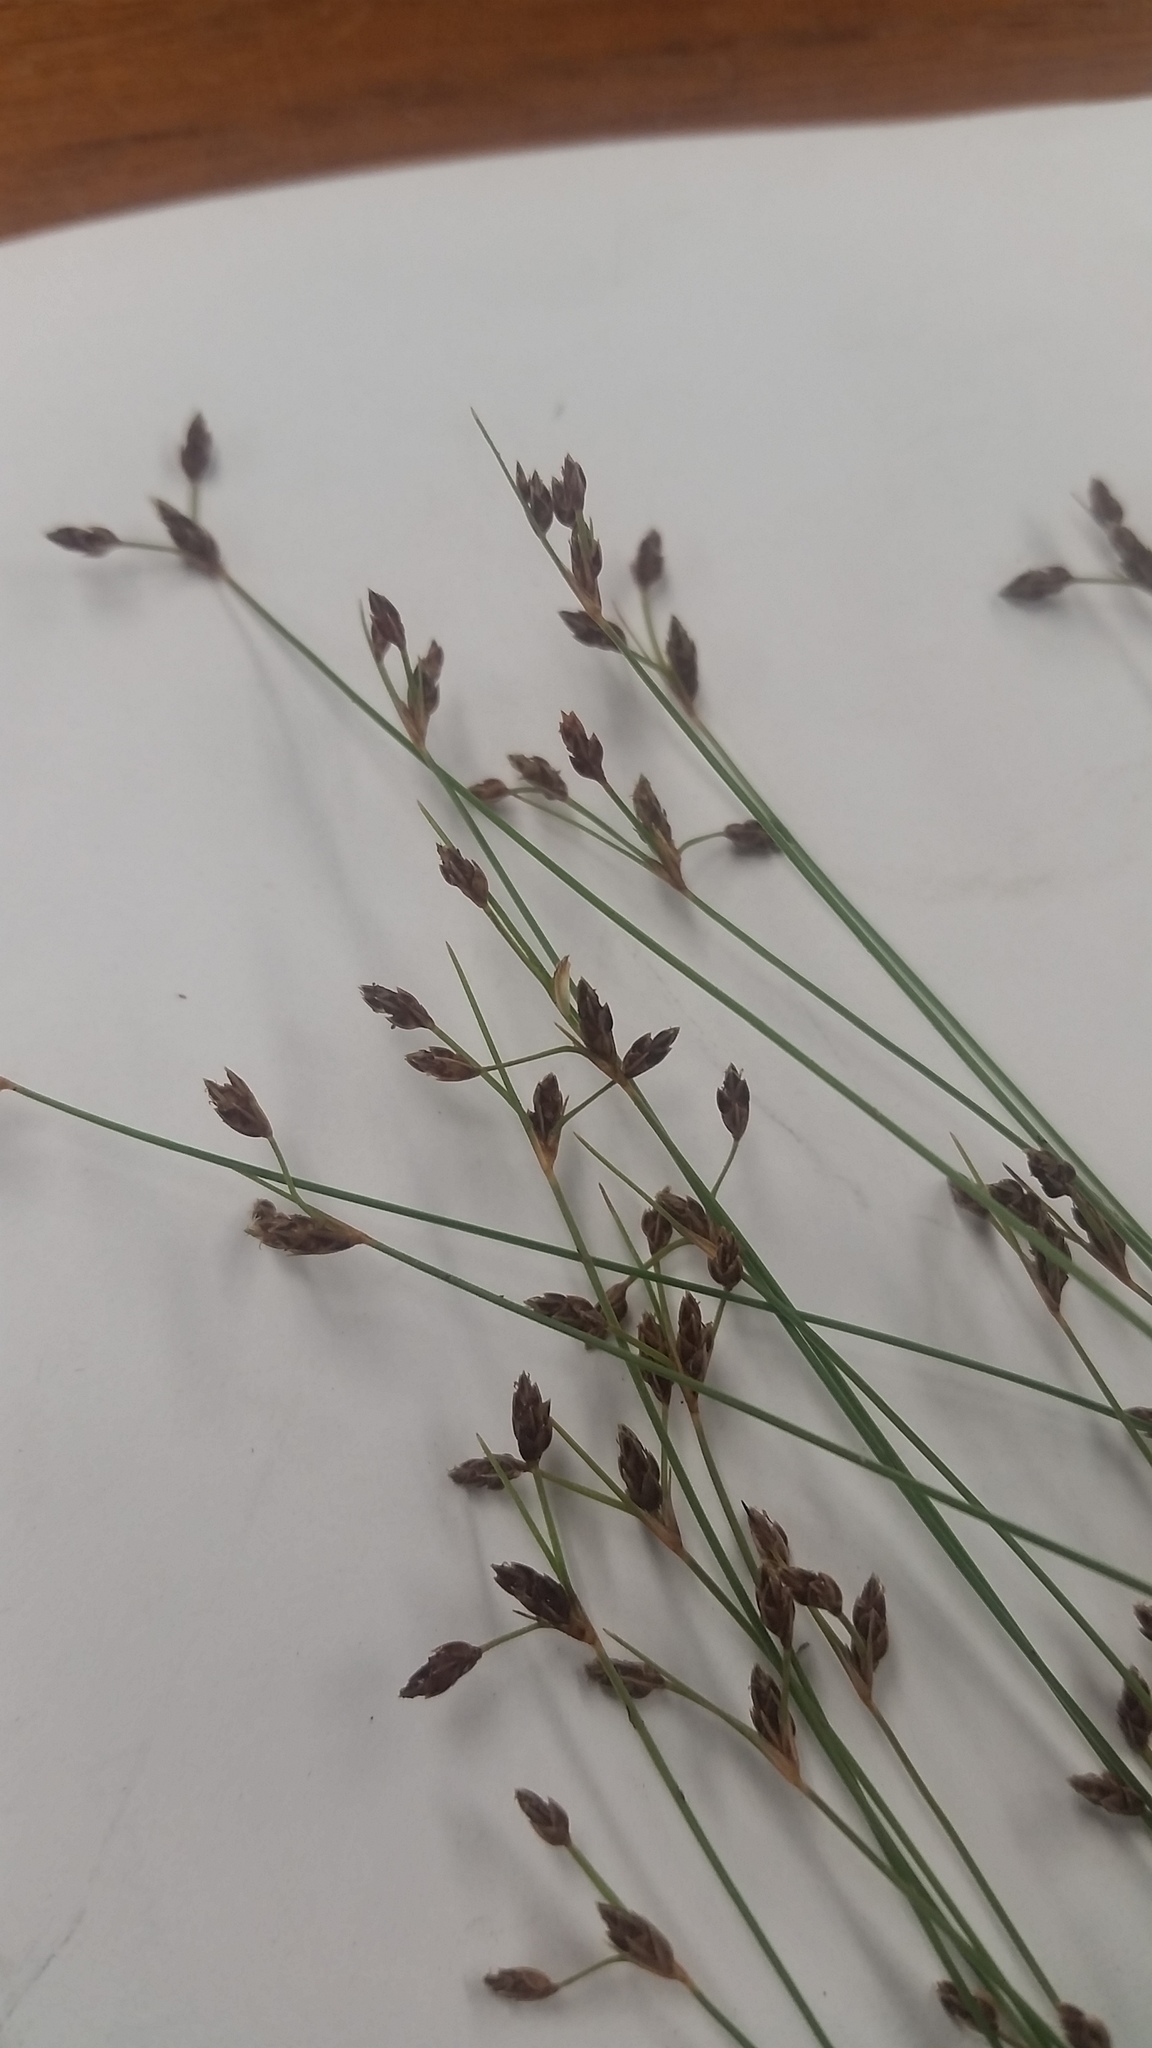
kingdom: Plantae
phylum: Tracheophyta
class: Liliopsida
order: Poales
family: Cyperaceae
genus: Bulbostylis
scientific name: Bulbostylis capillaris
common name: Densetuft hairsedge
